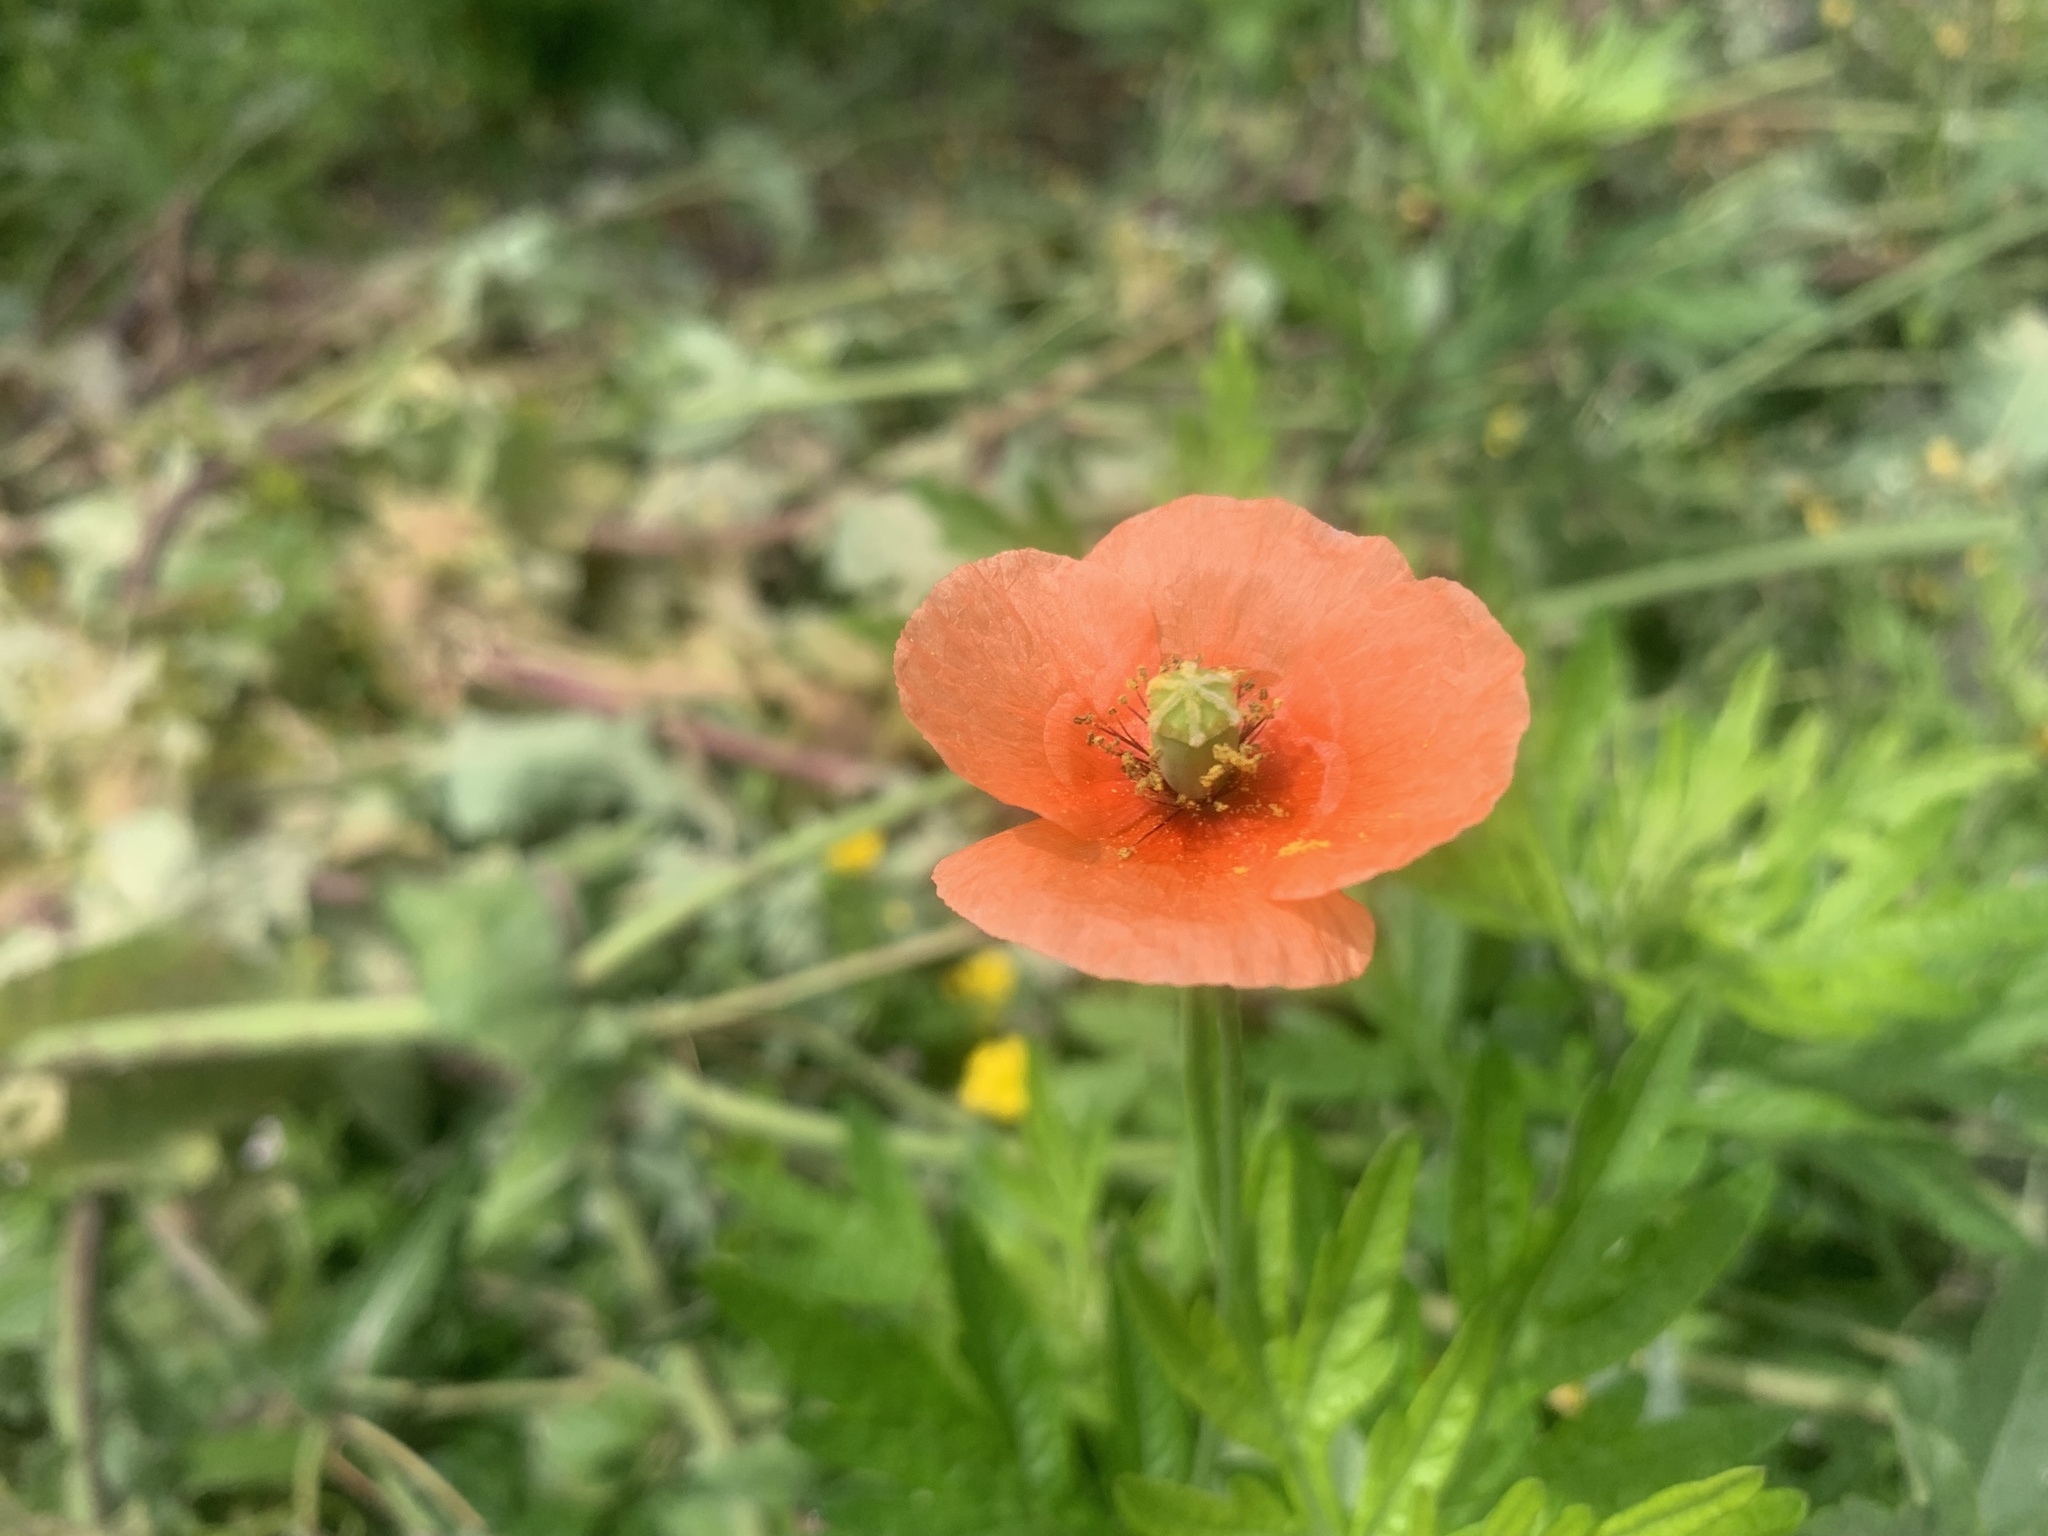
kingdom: Plantae
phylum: Tracheophyta
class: Magnoliopsida
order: Ranunculales
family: Papaveraceae
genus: Papaver
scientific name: Papaver dubium
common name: Long-headed poppy
